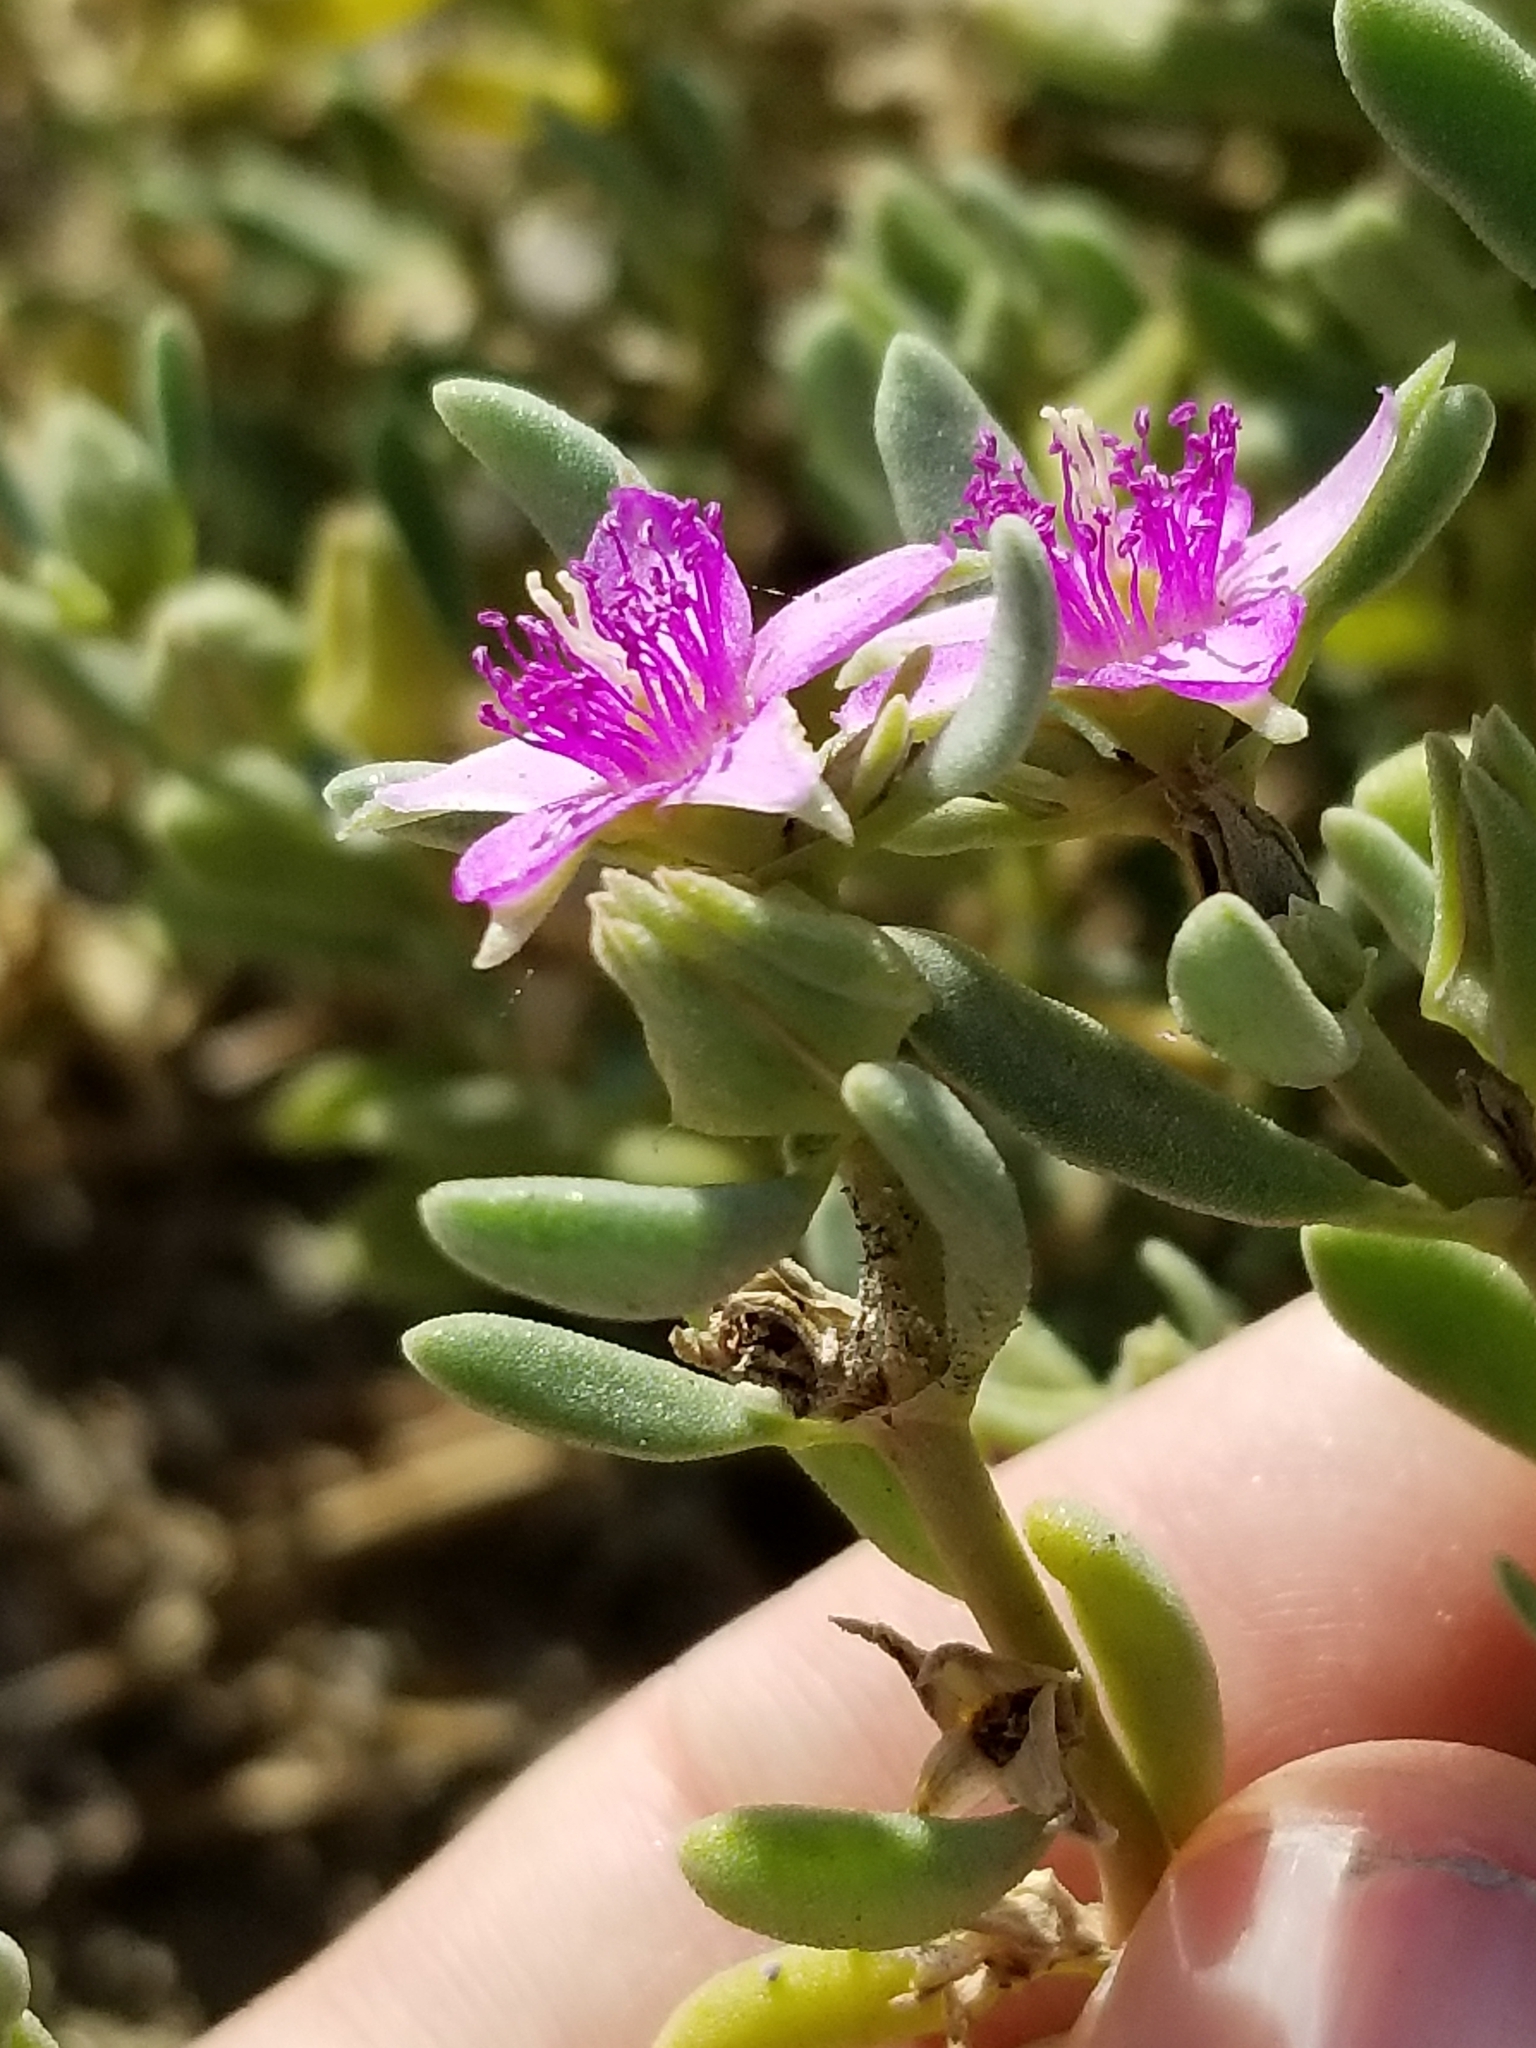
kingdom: Plantae
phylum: Tracheophyta
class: Magnoliopsida
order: Caryophyllales
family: Aizoaceae
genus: Sesuvium
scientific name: Sesuvium revolutifolium
